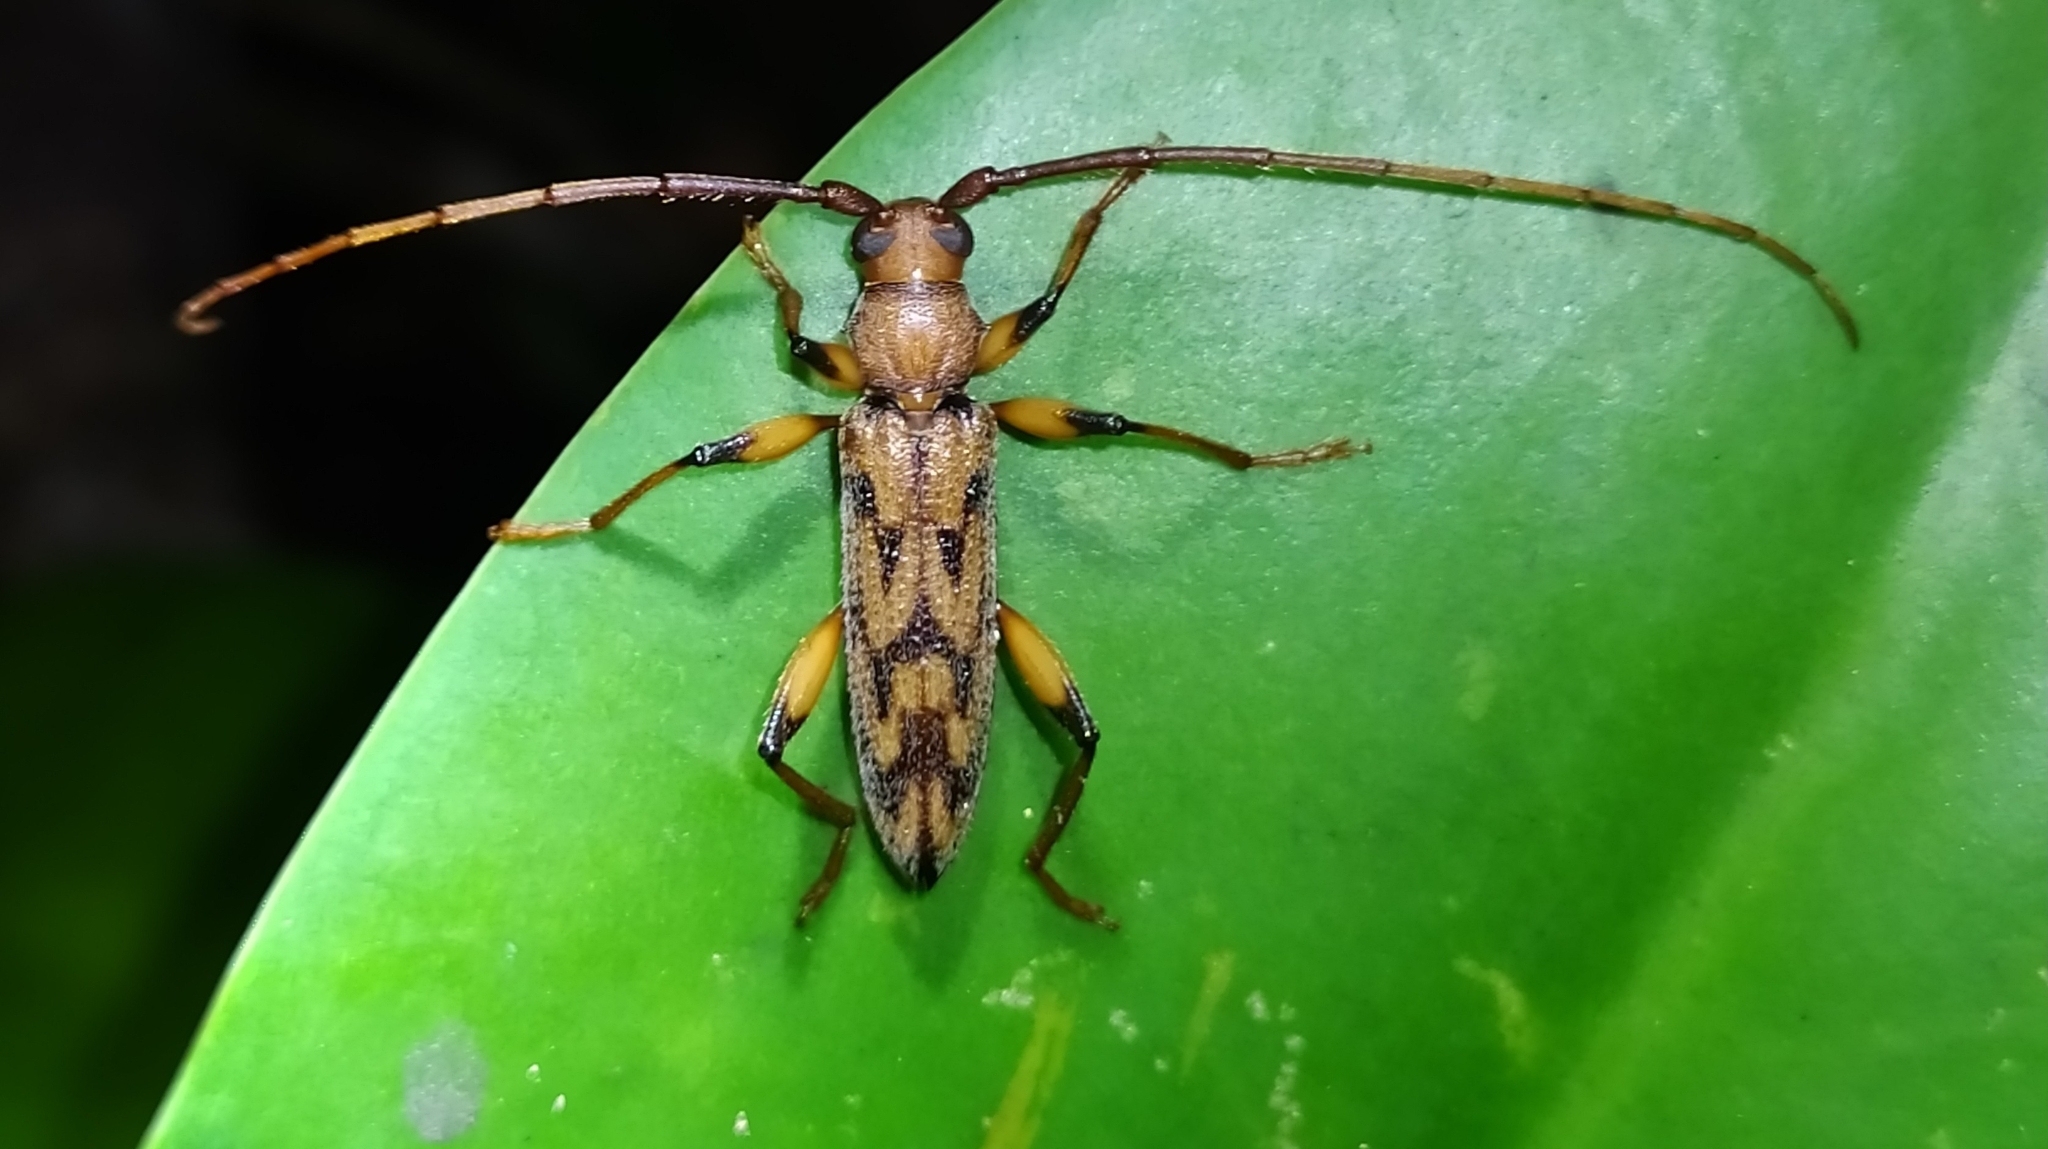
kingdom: Animalia
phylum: Arthropoda
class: Insecta
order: Coleoptera
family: Cerambycidae
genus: Phrynocris
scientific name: Phrynocris notabilis
